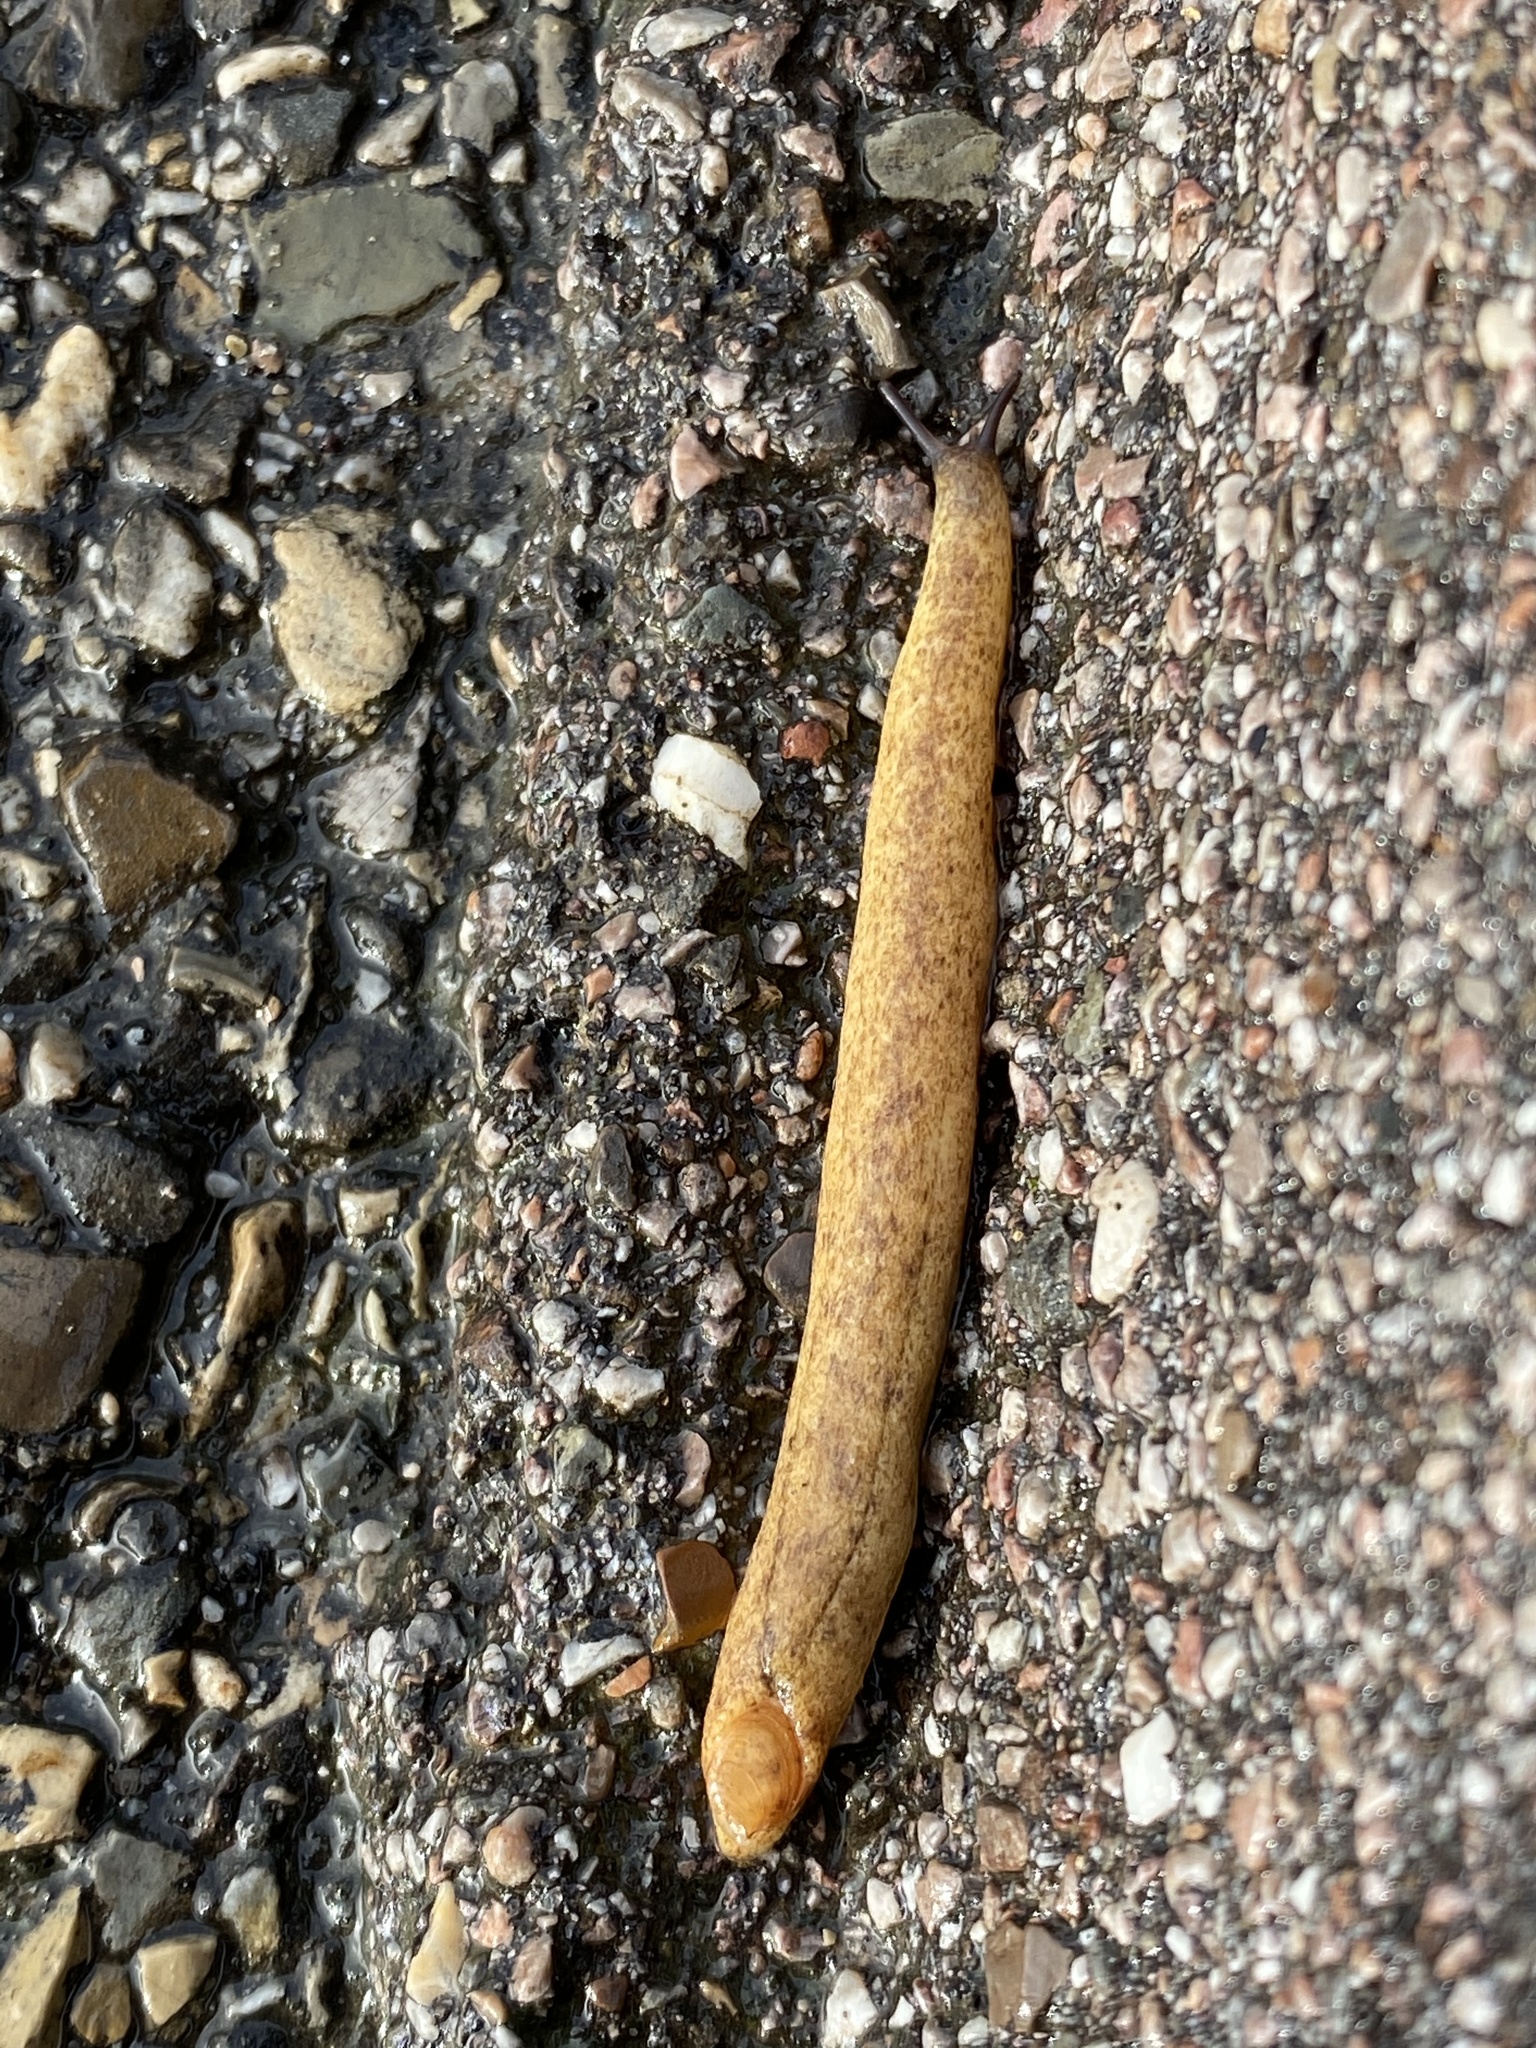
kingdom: Animalia
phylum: Mollusca
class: Gastropoda
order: Stylommatophora
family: Testacellidae
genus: Testacella
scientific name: Testacella scutulum
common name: Sowerby's shield shelled slug
